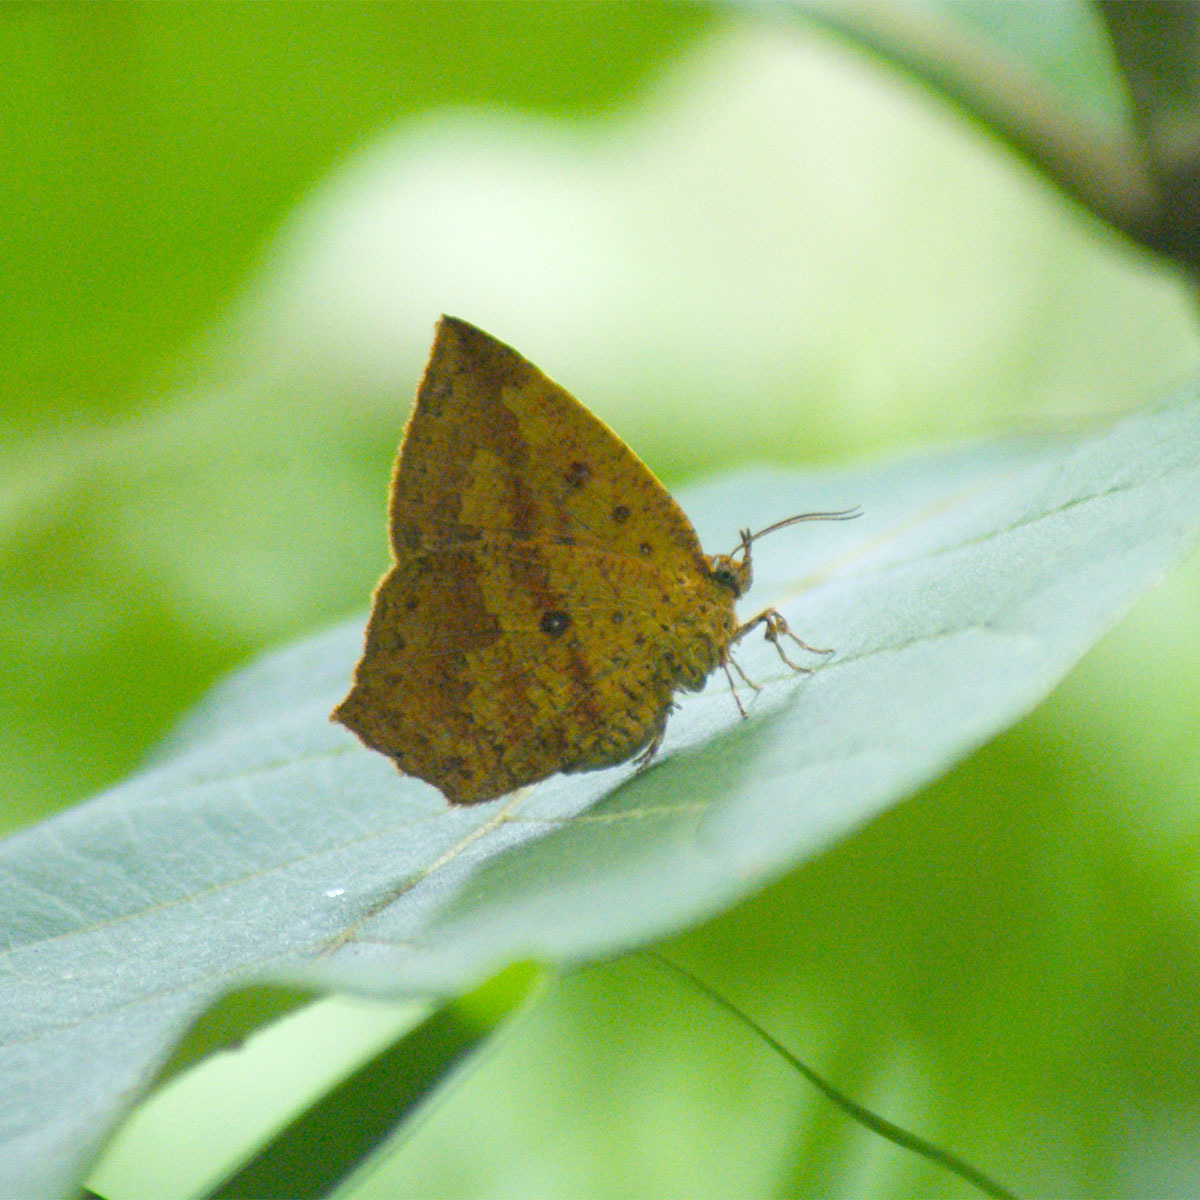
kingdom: Animalia
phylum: Arthropoda
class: Insecta
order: Lepidoptera
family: Callidulidae
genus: Tetragonus
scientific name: Tetragonus catamitus
